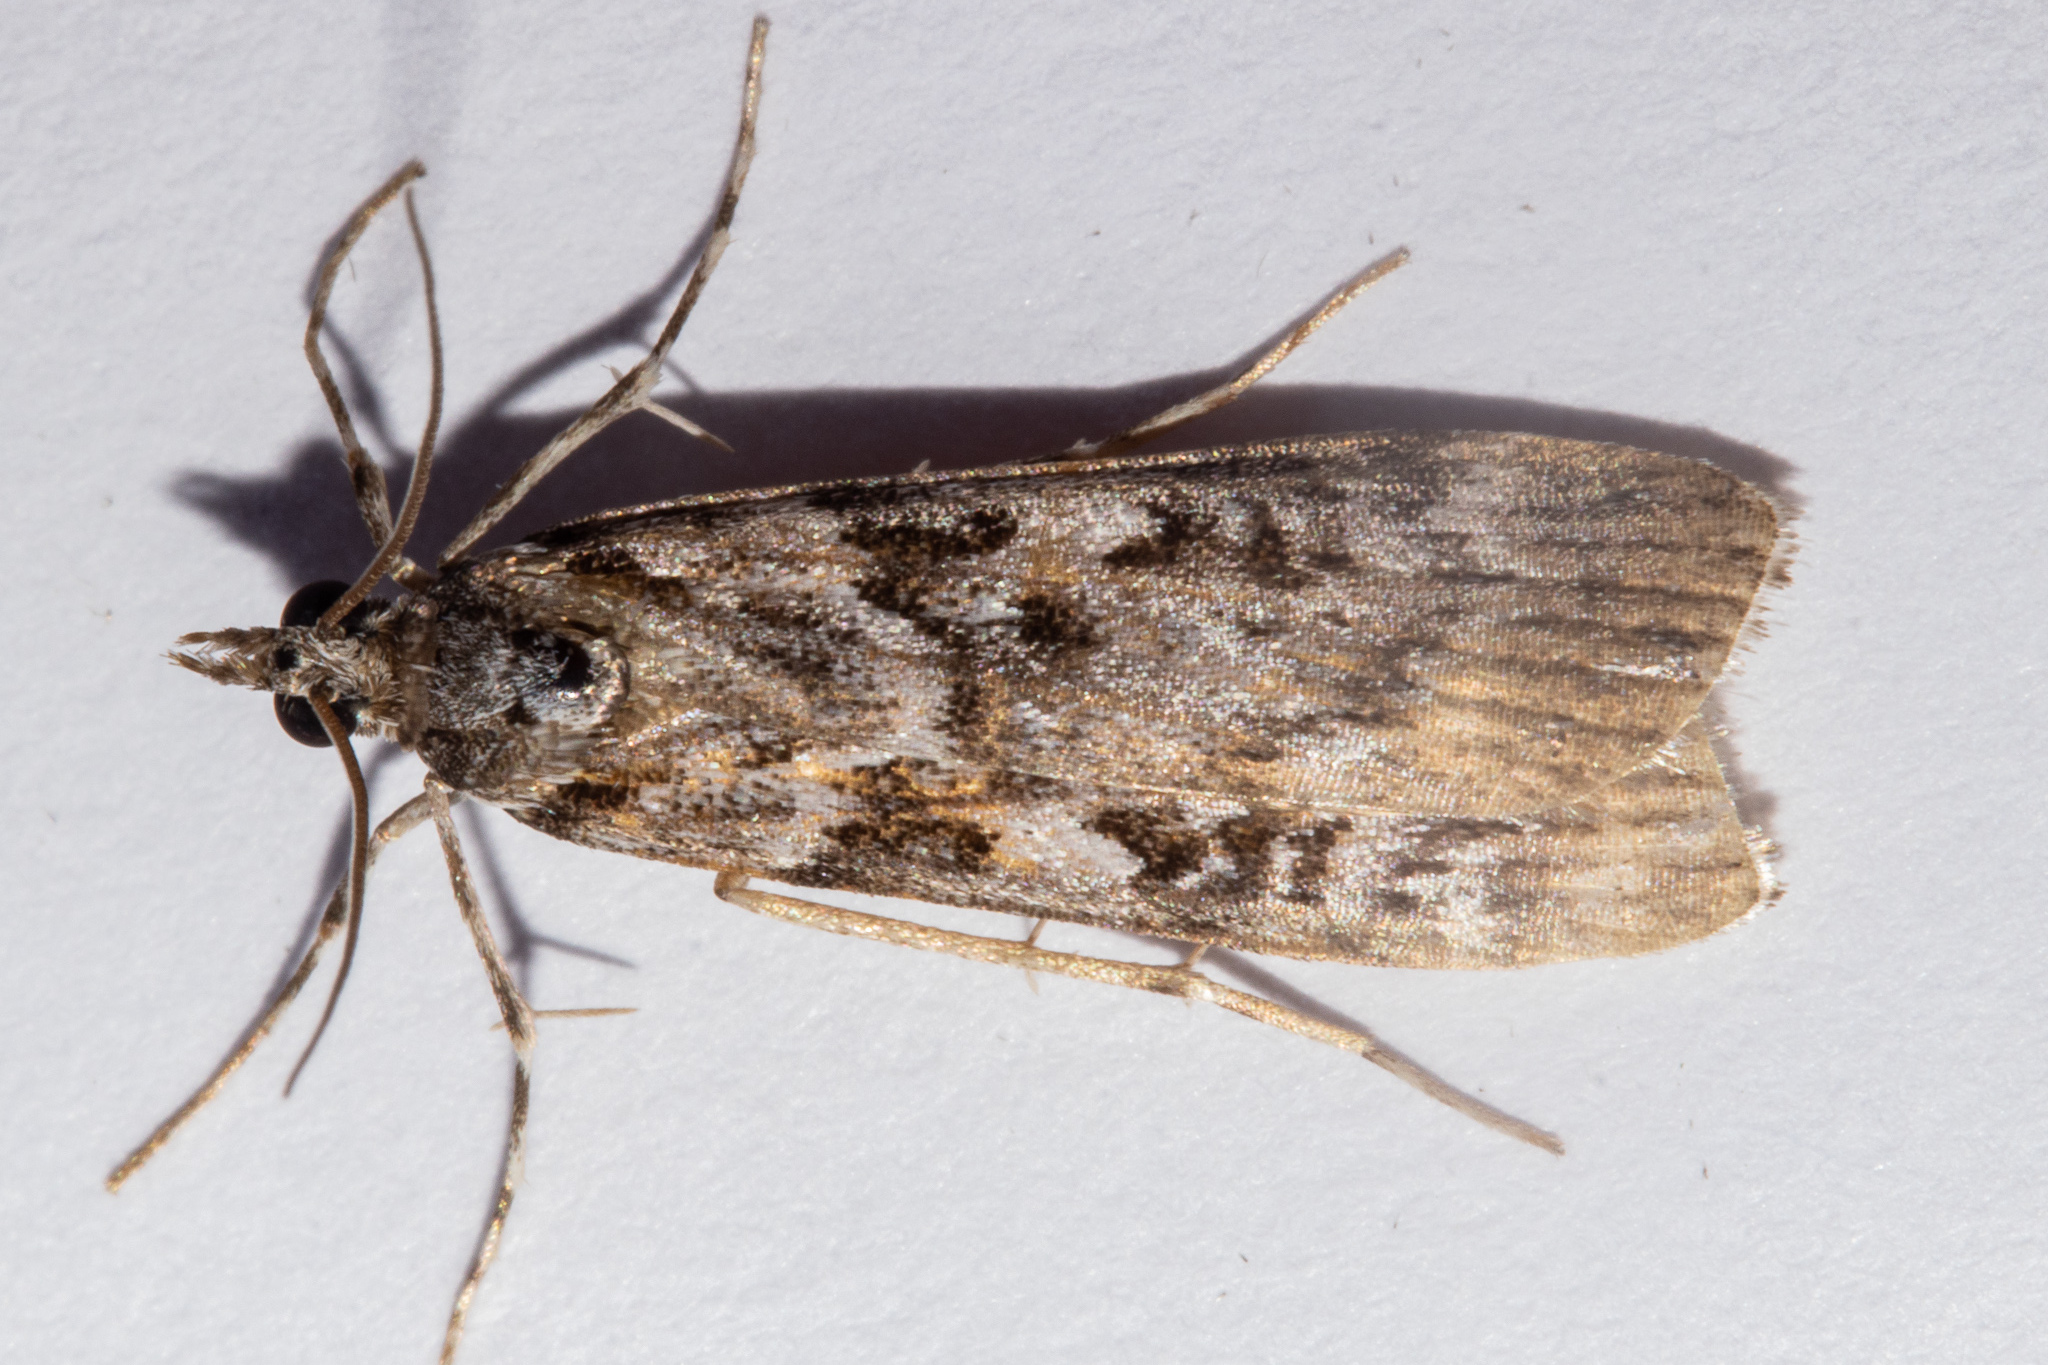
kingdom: Animalia
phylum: Arthropoda
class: Insecta
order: Lepidoptera
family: Crambidae
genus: Scoparia
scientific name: Scoparia petrina
